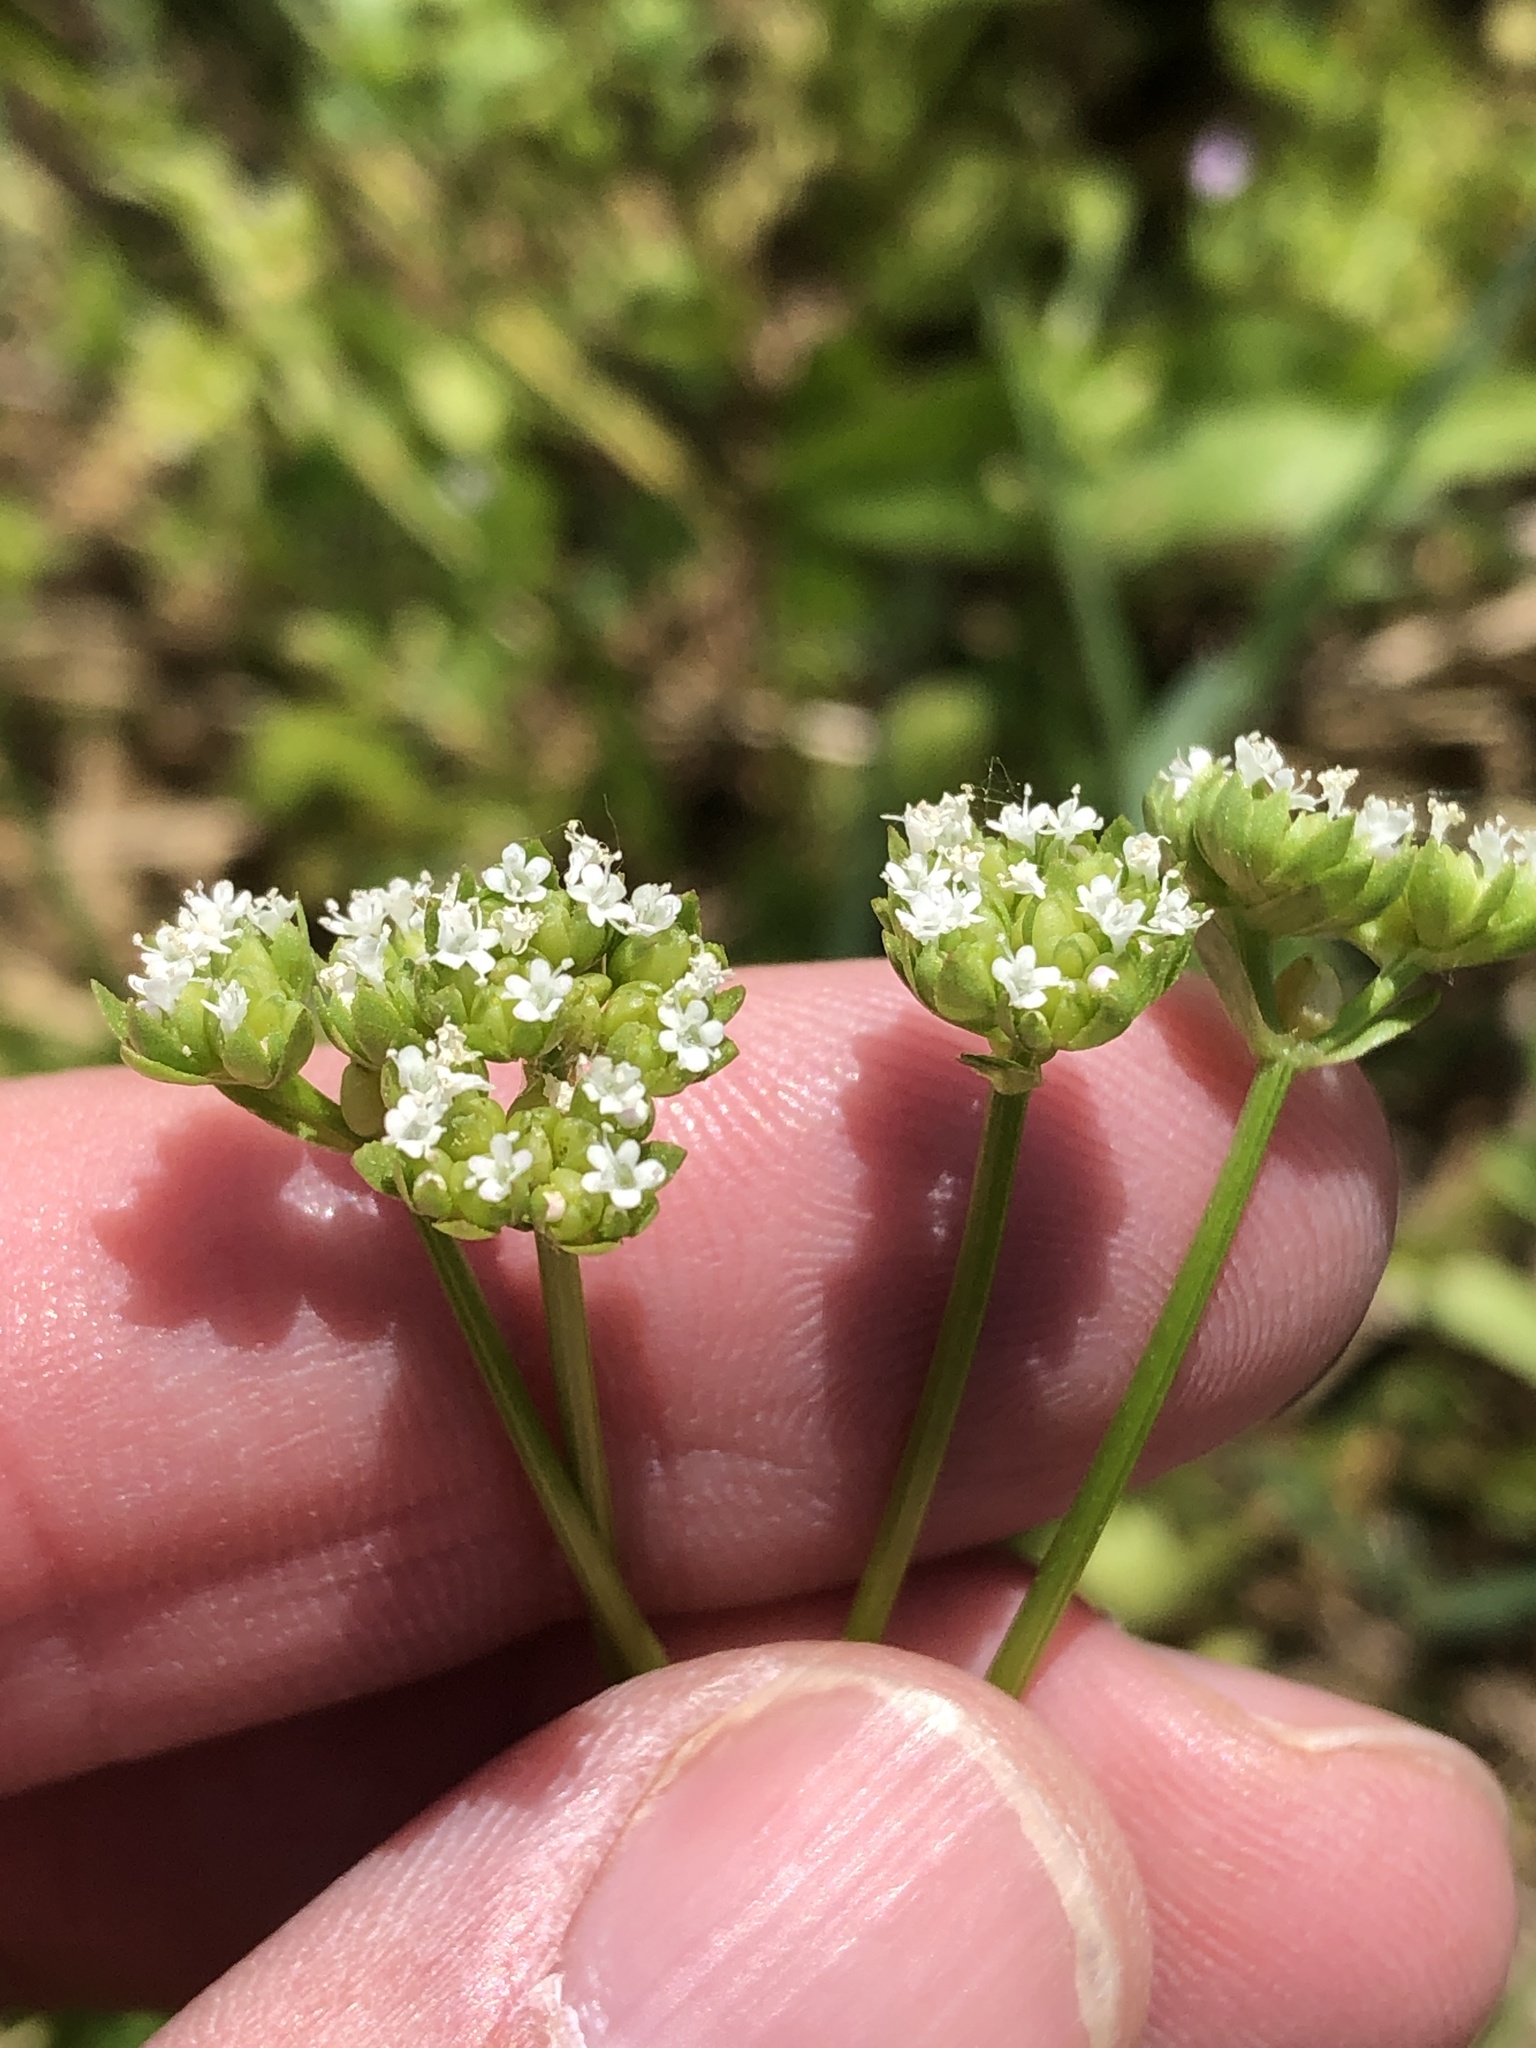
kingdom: Plantae
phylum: Tracheophyta
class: Magnoliopsida
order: Dipsacales
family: Caprifoliaceae
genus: Valerianella
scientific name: Valerianella radiata
